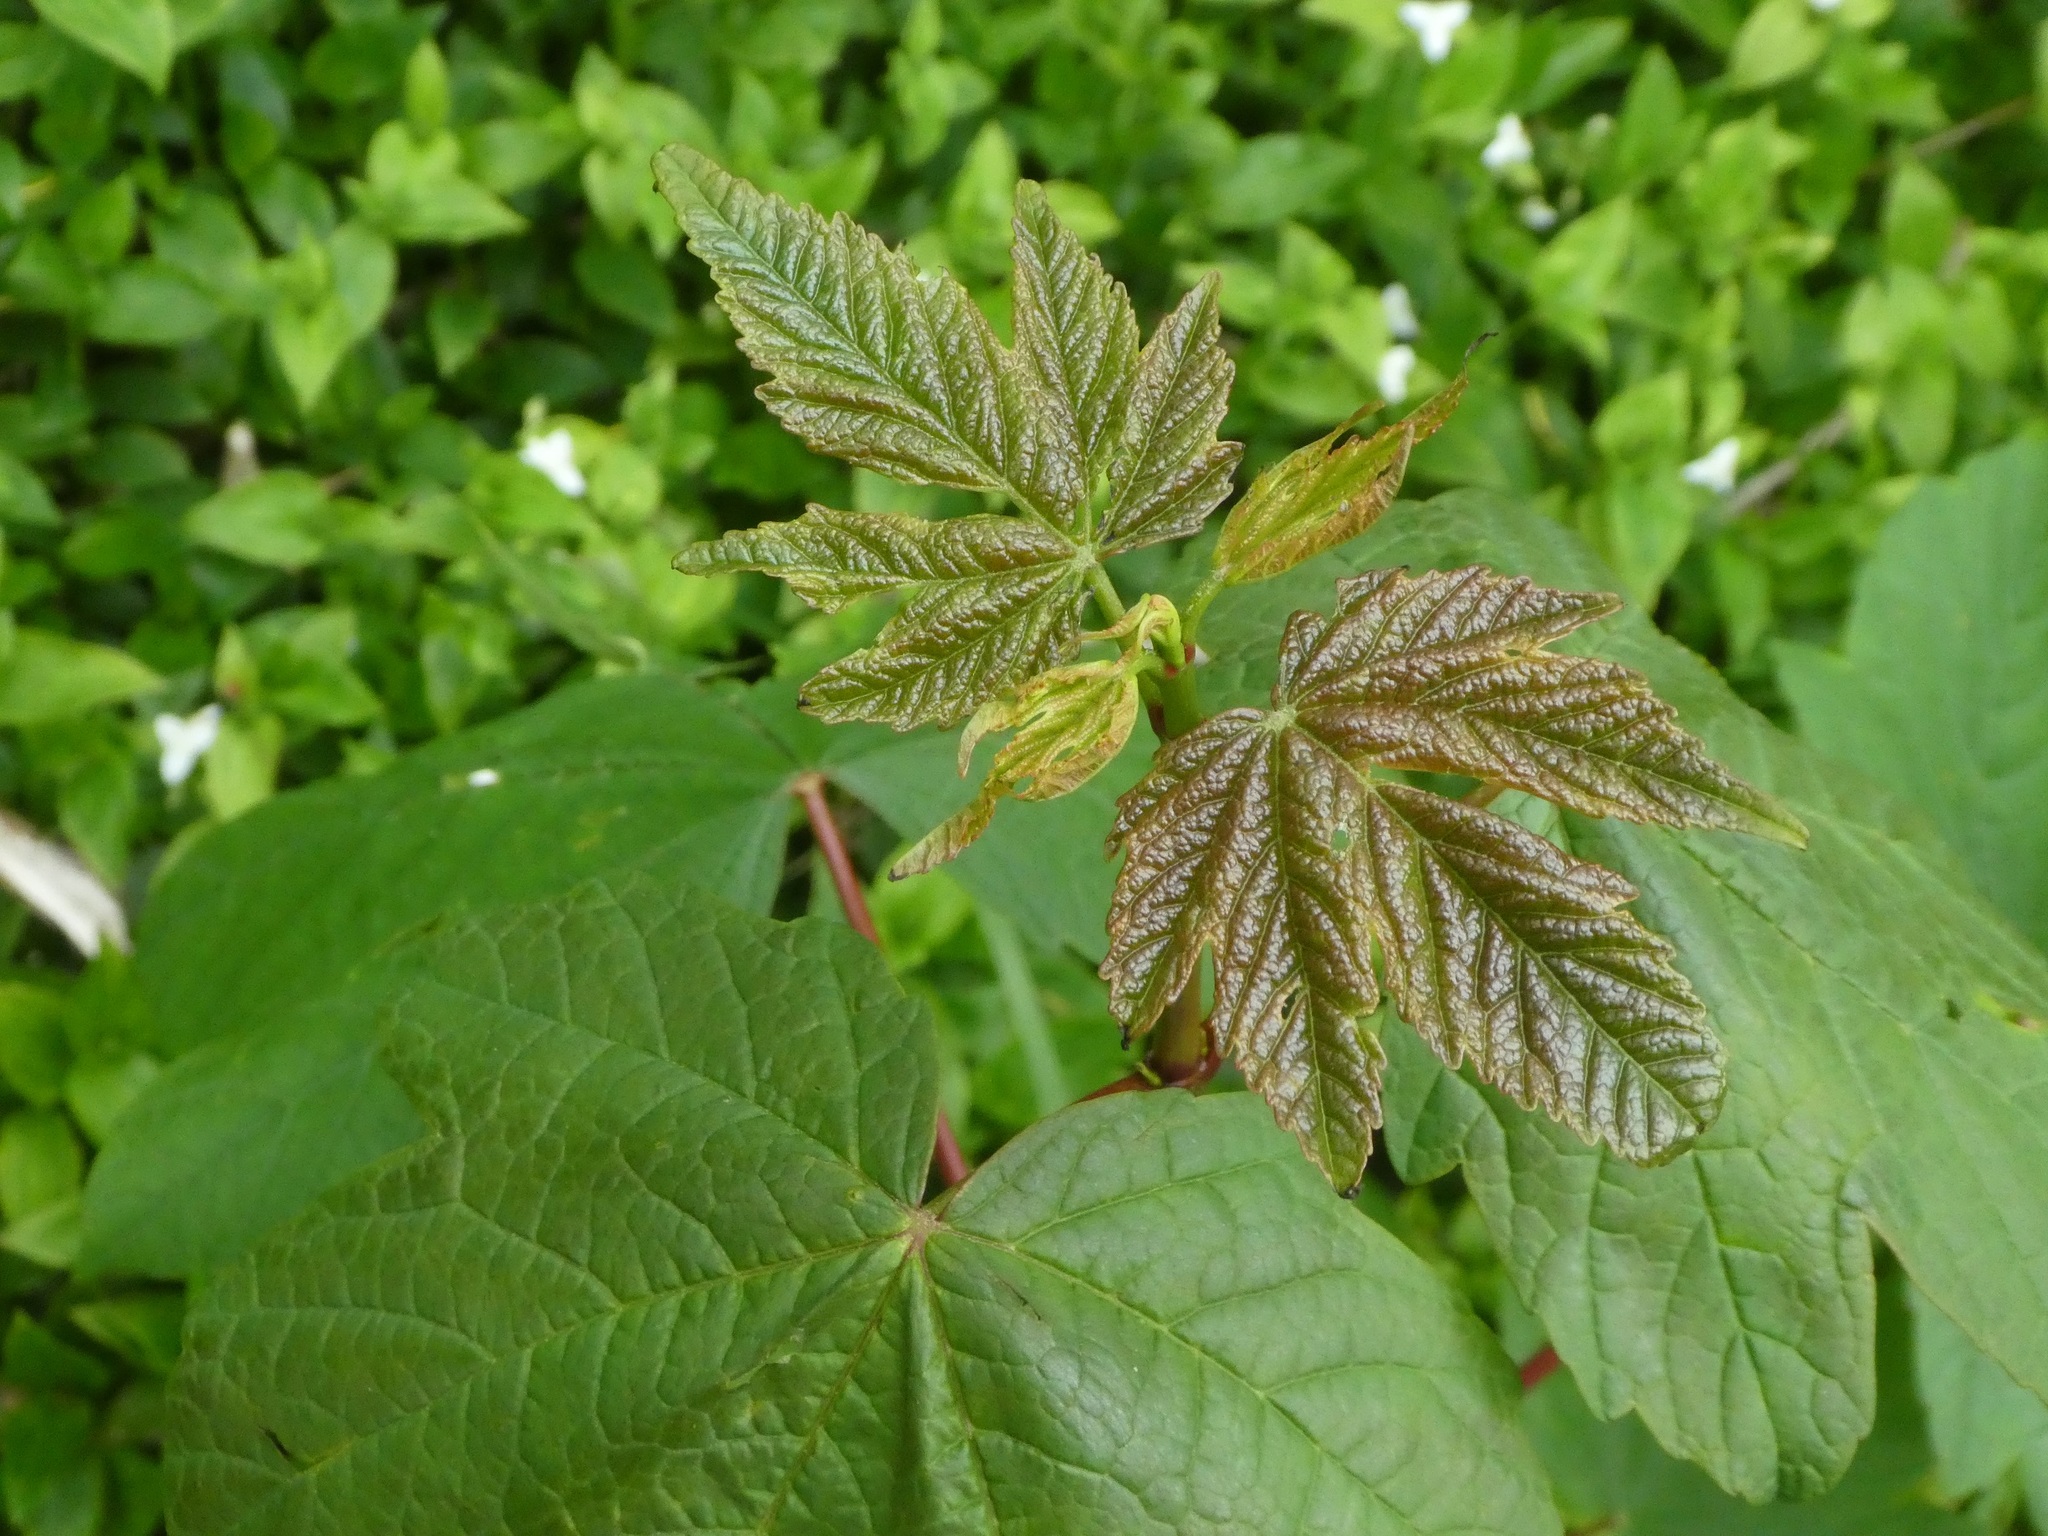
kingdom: Plantae
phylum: Tracheophyta
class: Magnoliopsida
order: Sapindales
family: Sapindaceae
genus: Acer
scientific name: Acer pseudoplatanus
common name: Sycamore
